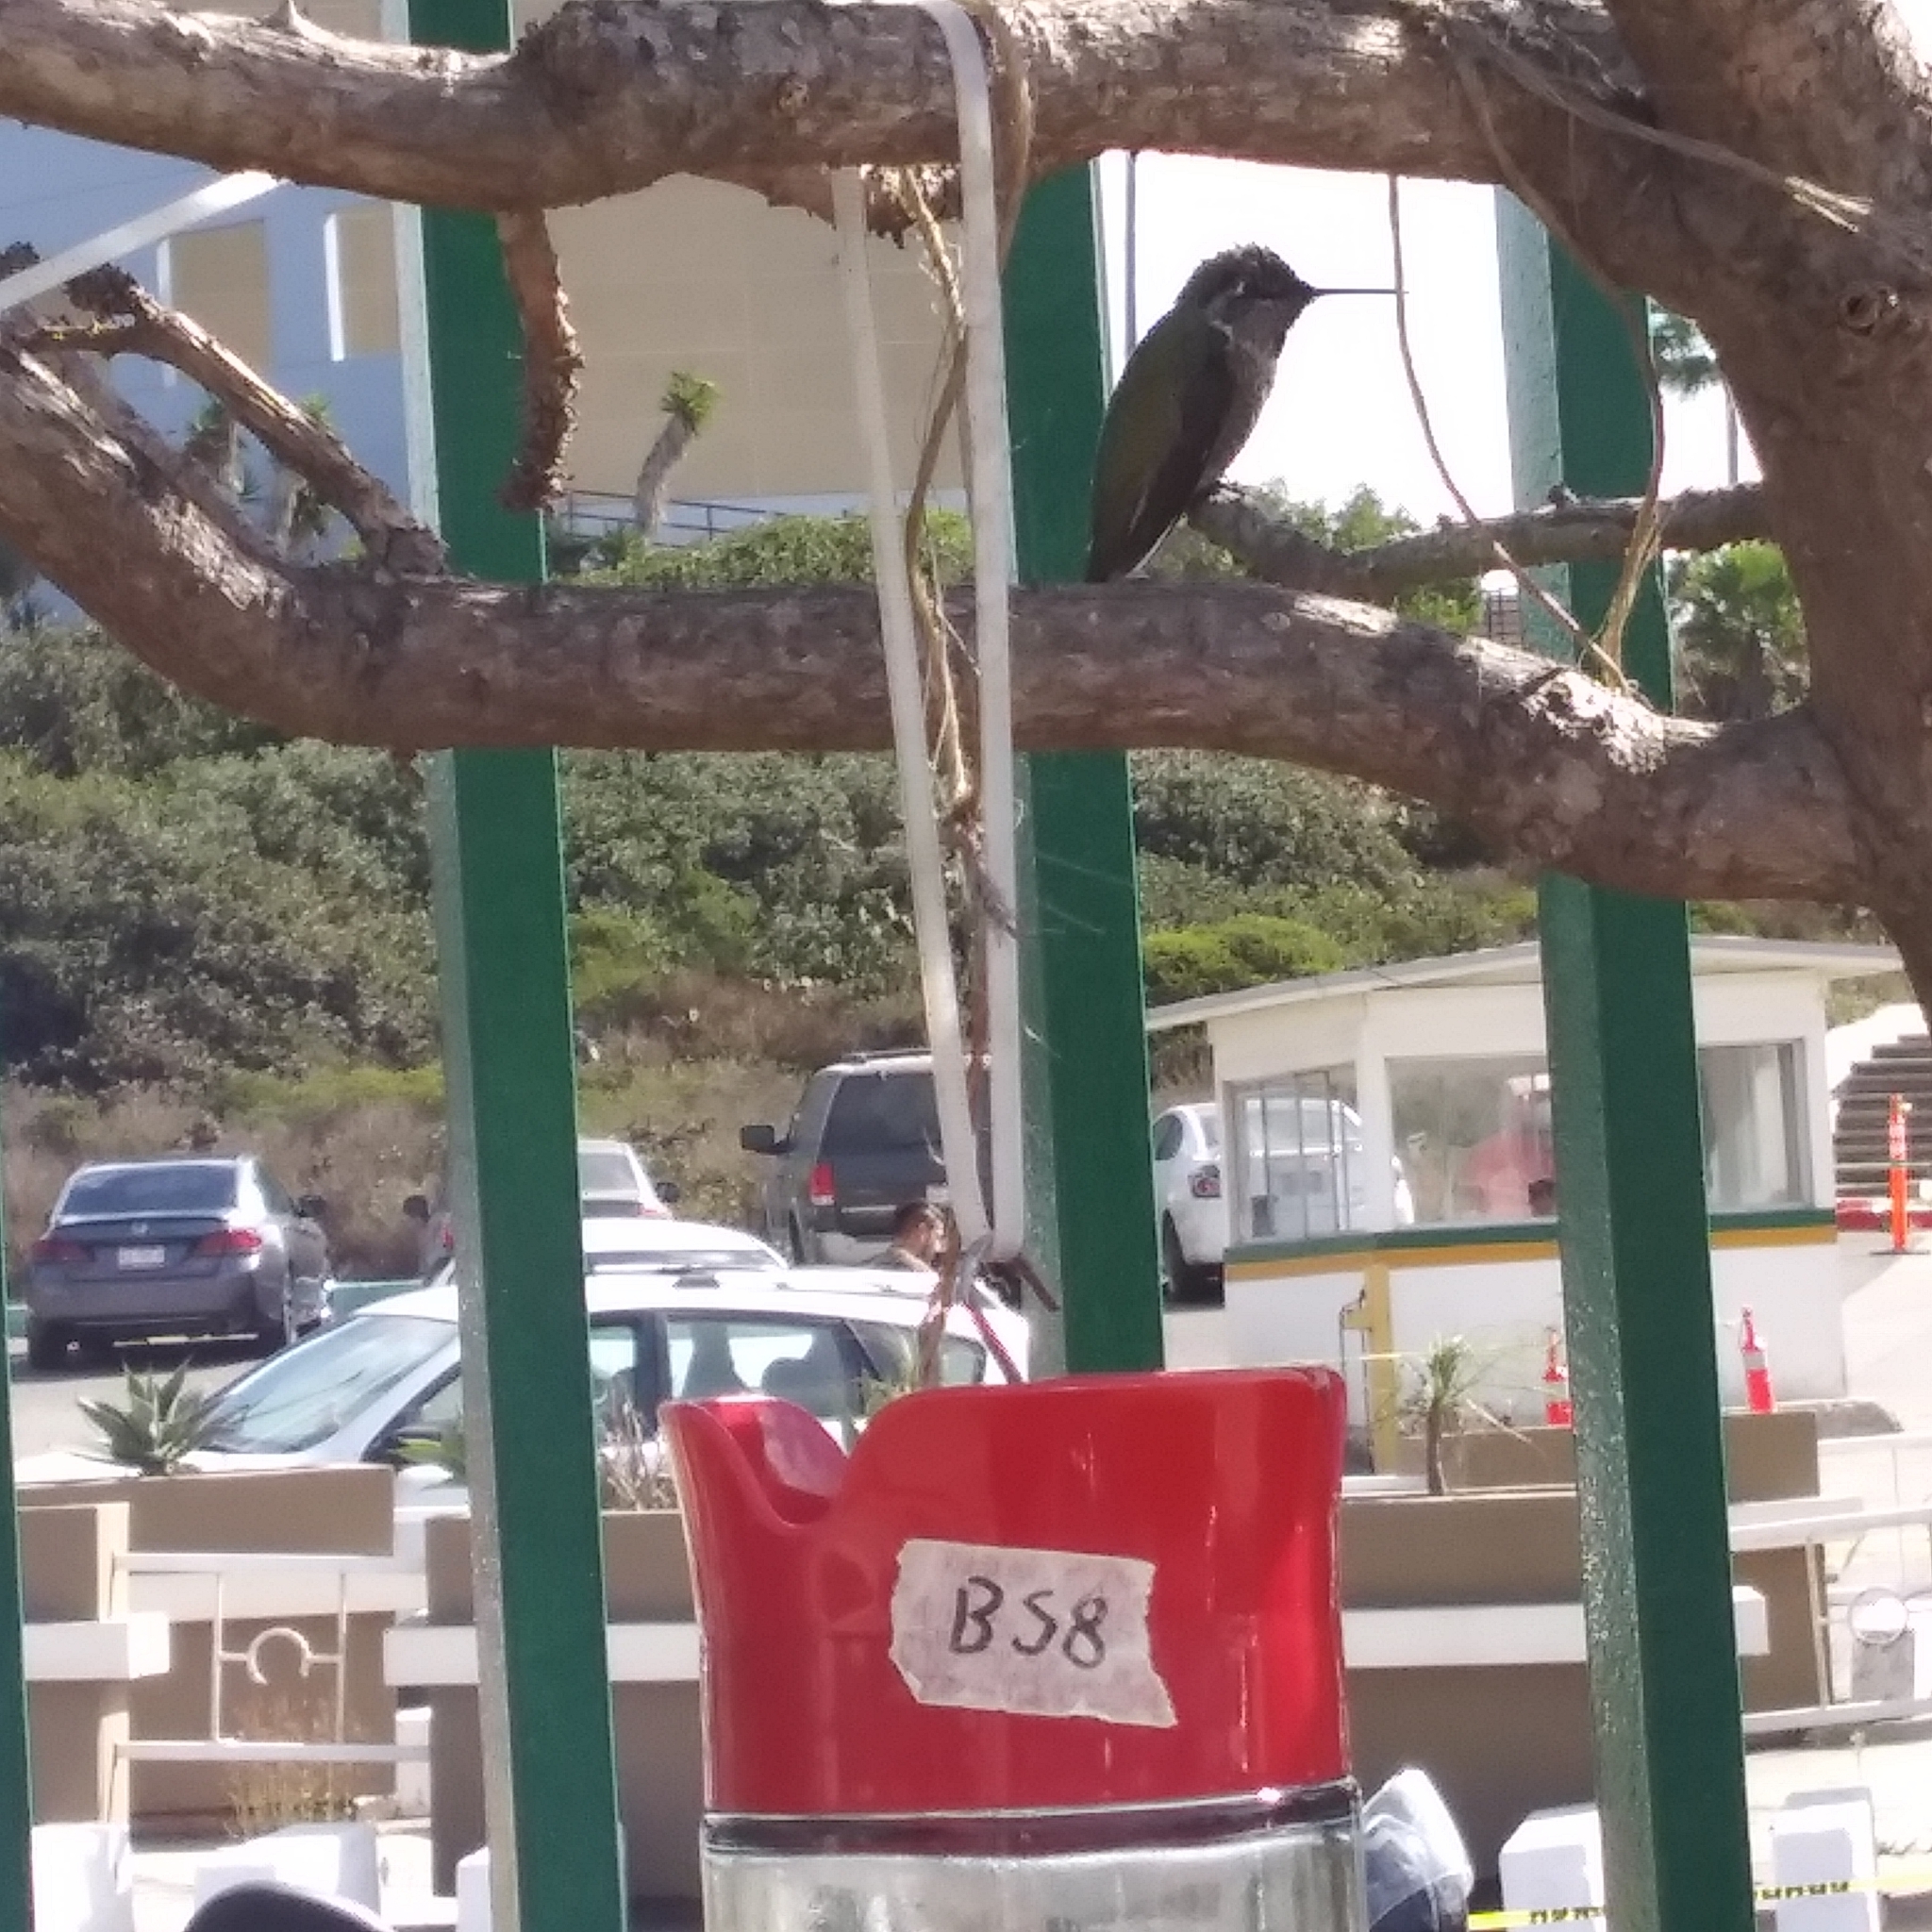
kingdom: Animalia
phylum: Chordata
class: Aves
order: Apodiformes
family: Trochilidae
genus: Calypte
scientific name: Calypte anna
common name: Anna's hummingbird
